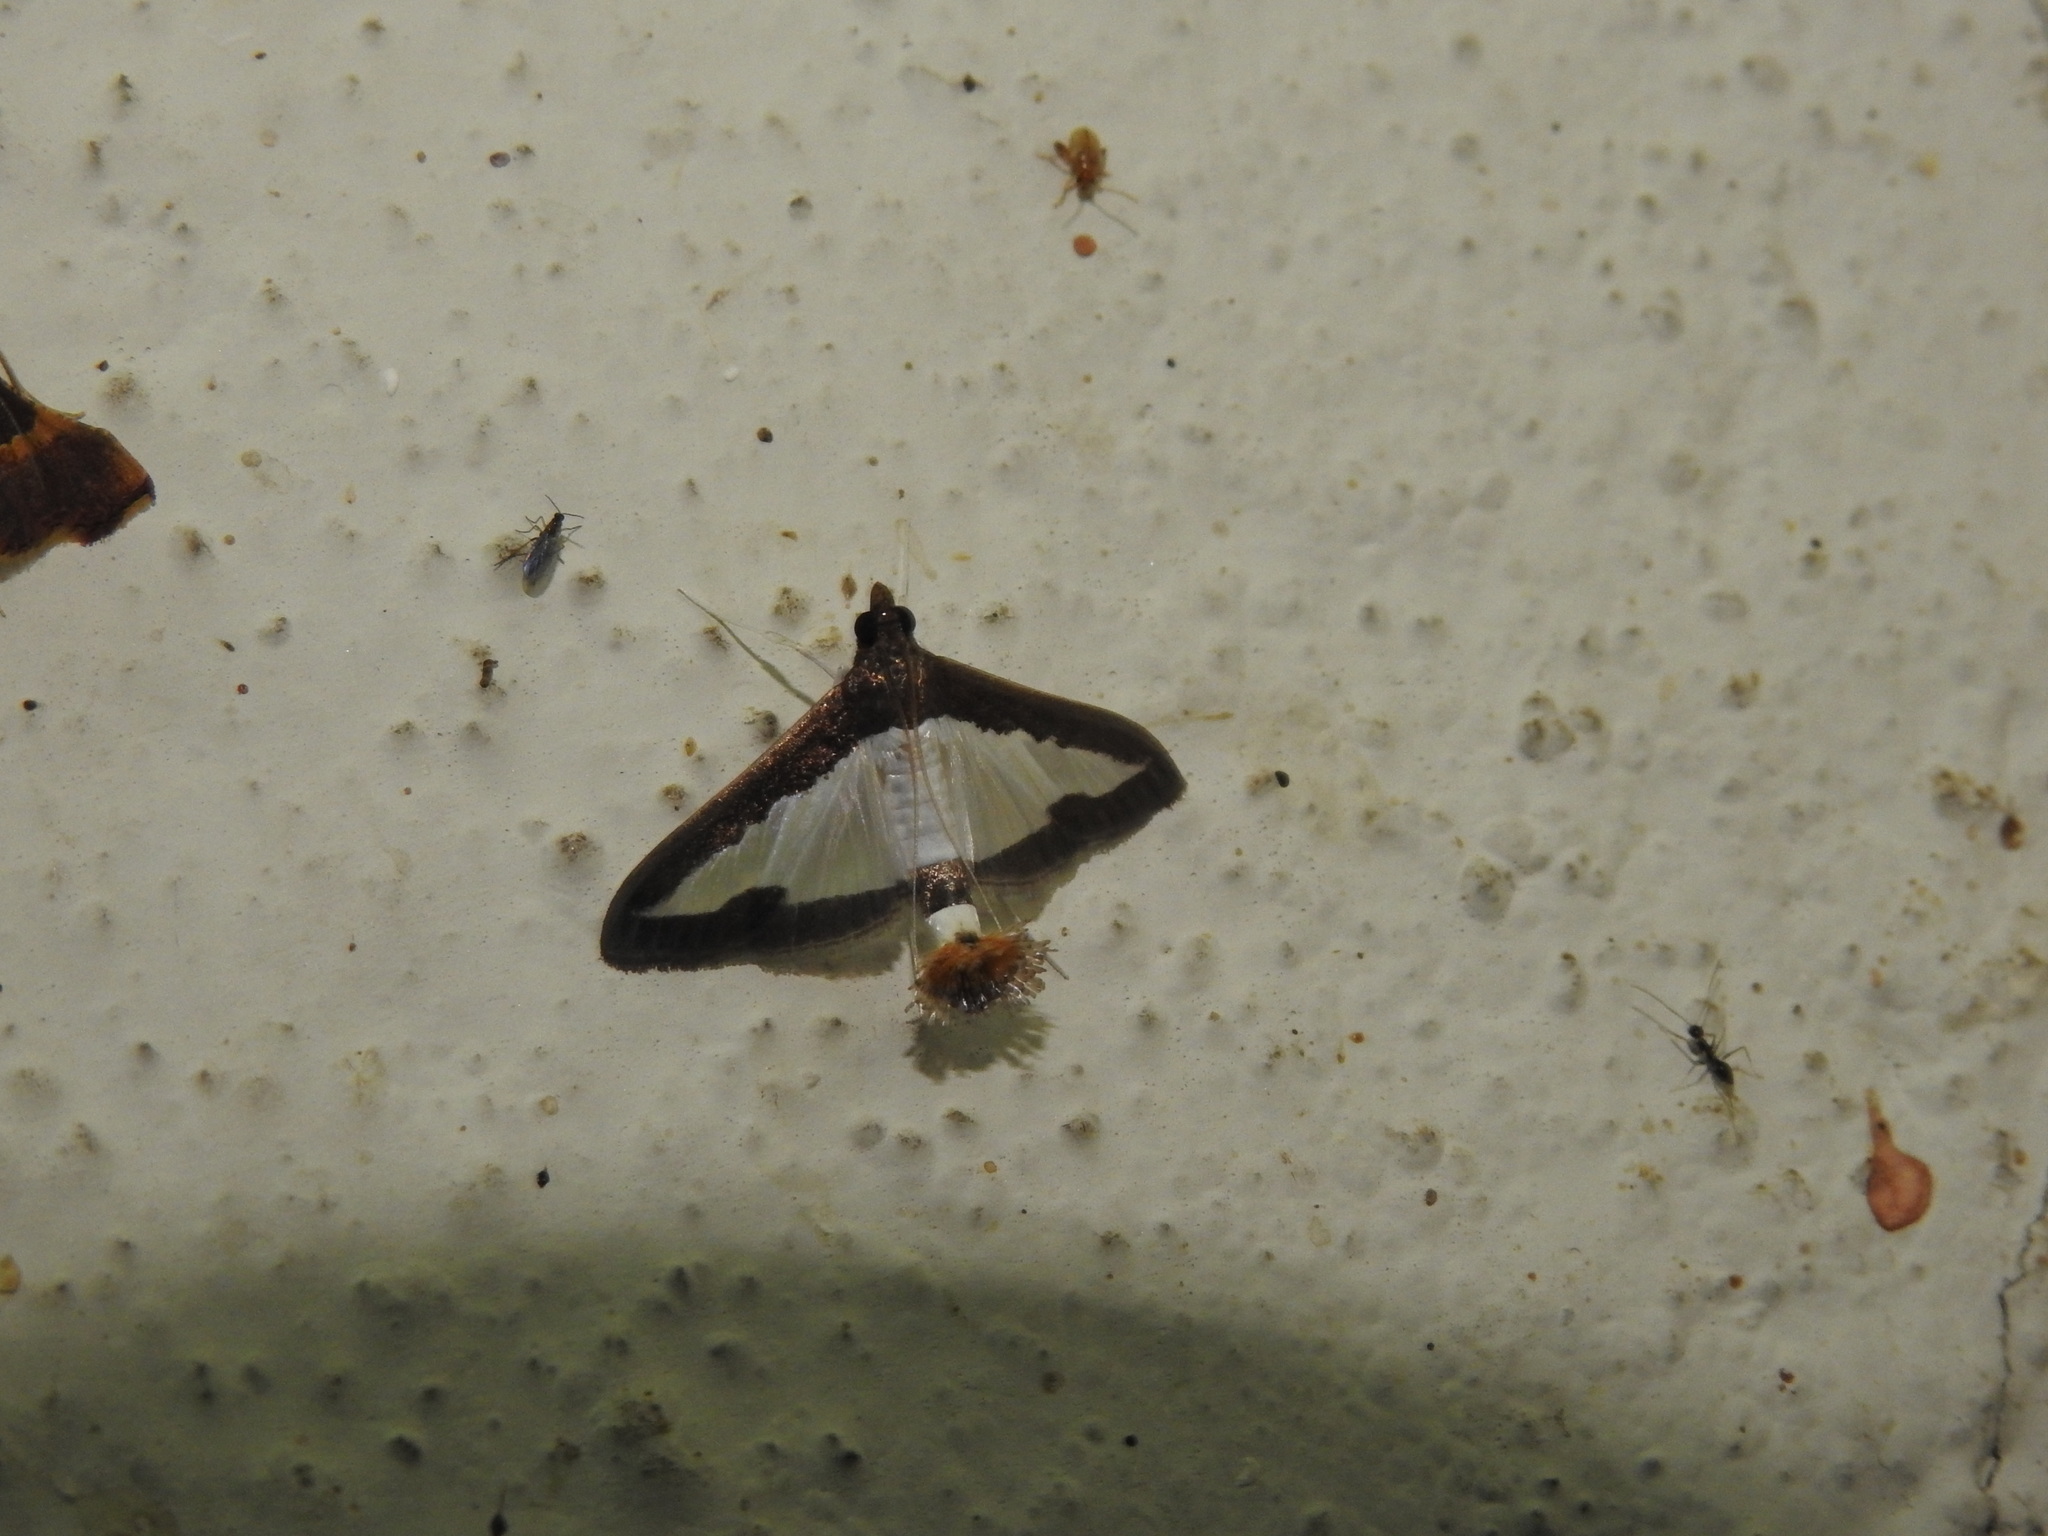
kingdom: Animalia
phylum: Arthropoda
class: Insecta
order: Lepidoptera
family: Crambidae
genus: Diaphania
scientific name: Diaphania indica
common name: Cucumber moth
